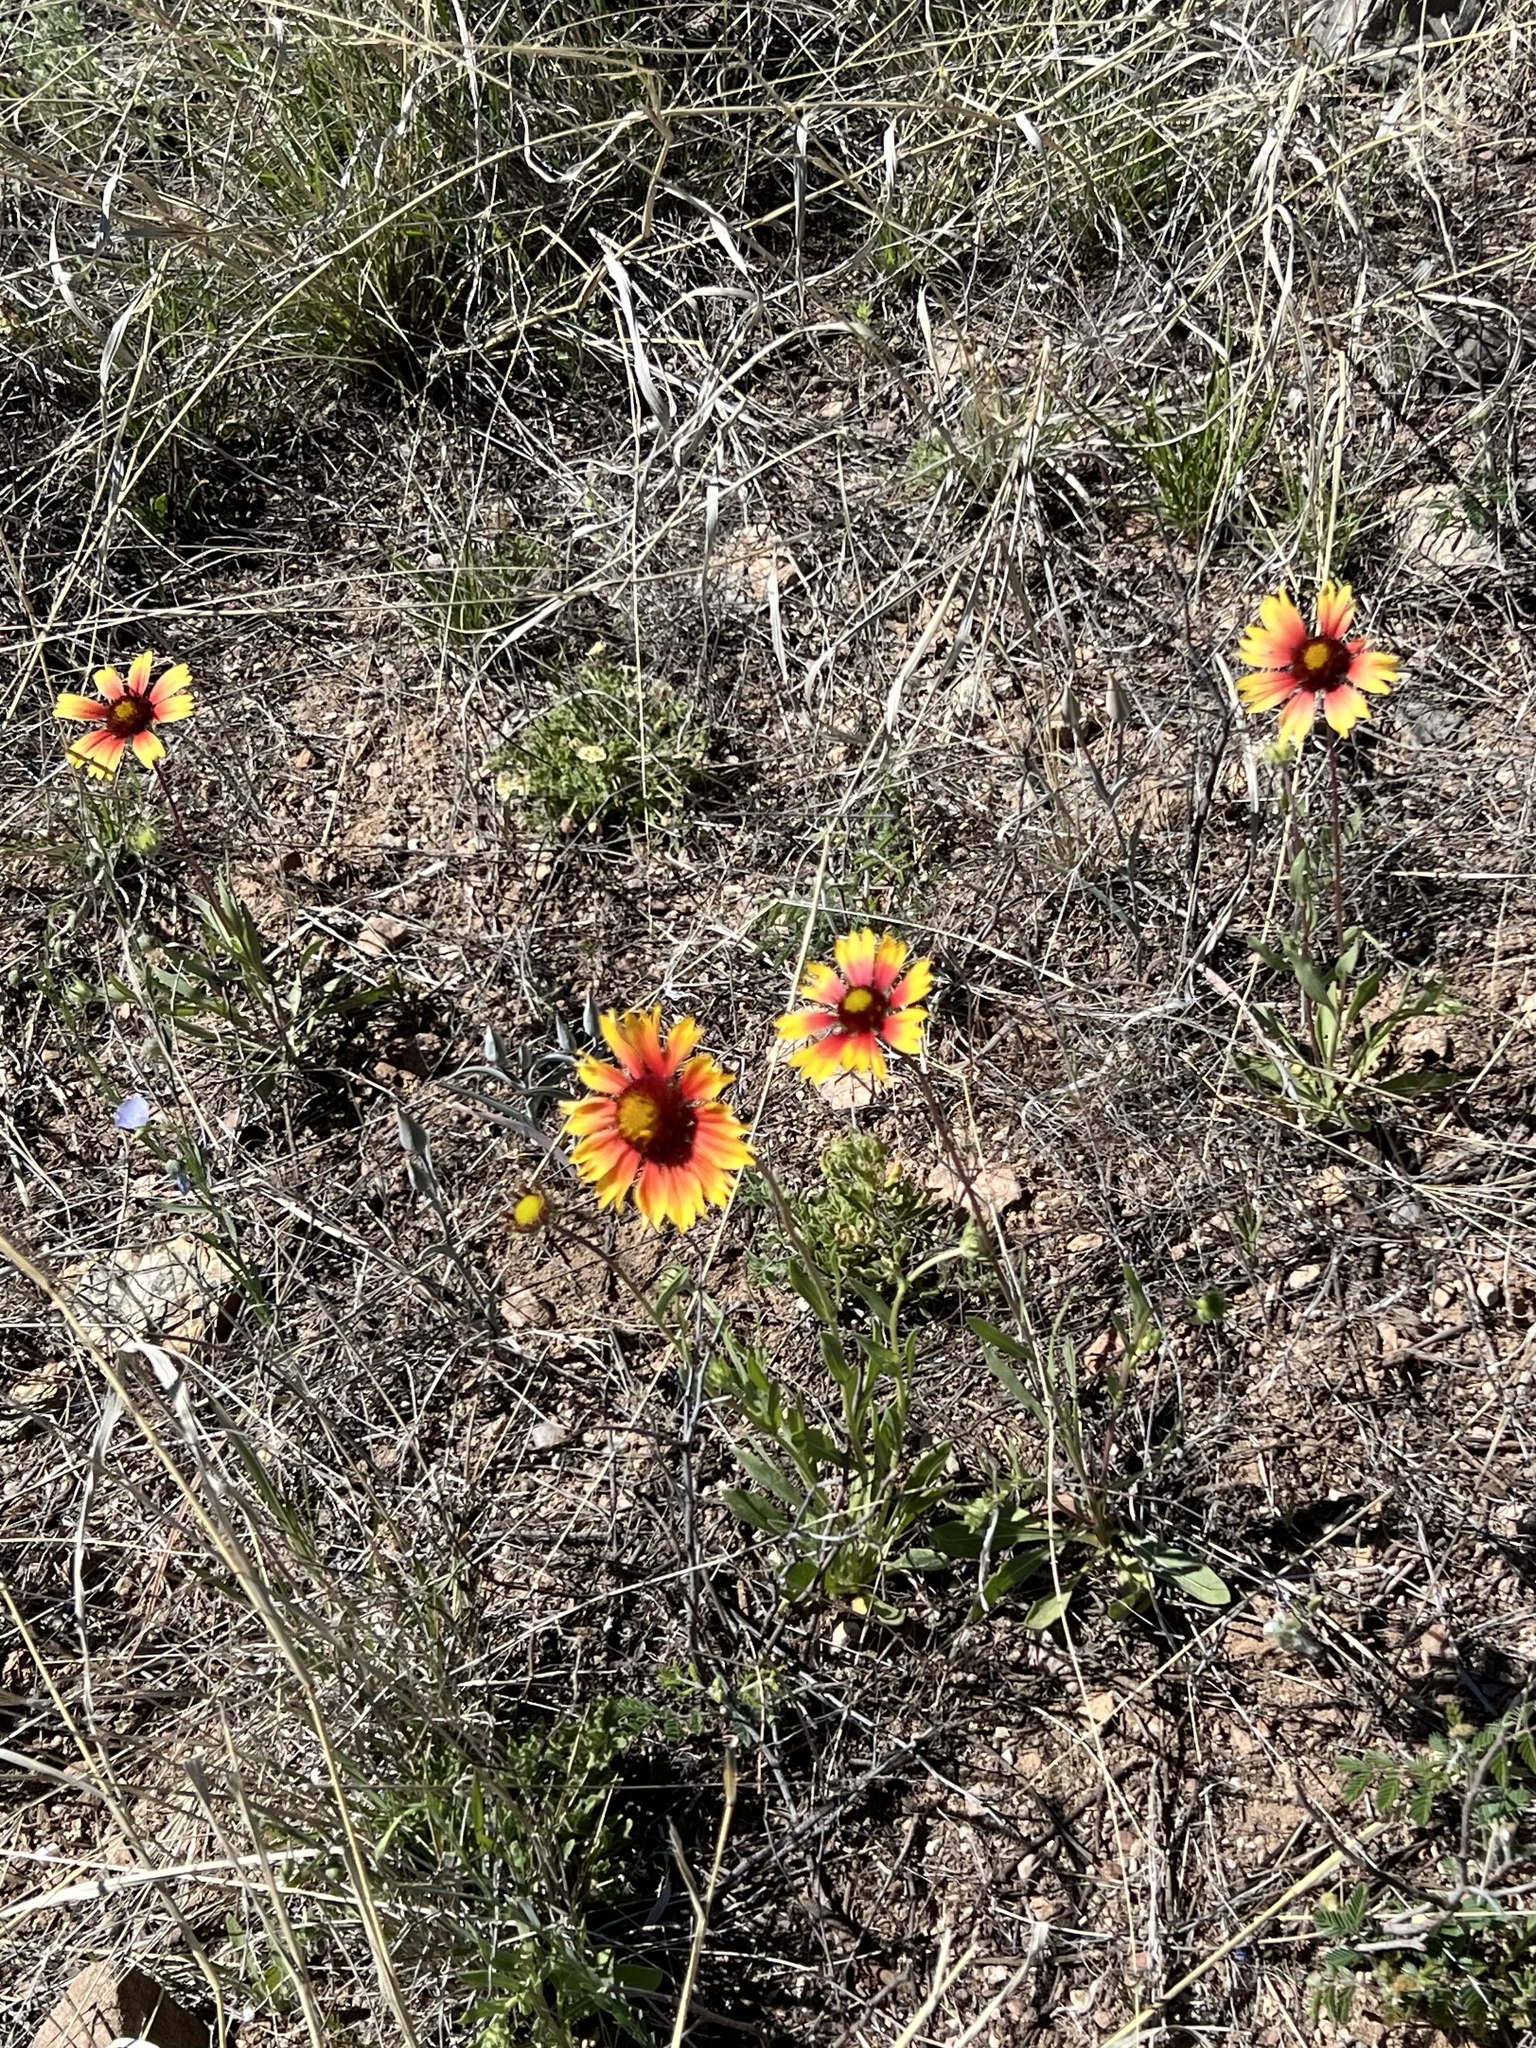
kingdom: Plantae
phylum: Tracheophyta
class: Magnoliopsida
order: Asterales
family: Asteraceae
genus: Gaillardia
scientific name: Gaillardia pulchella
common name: Firewheel
